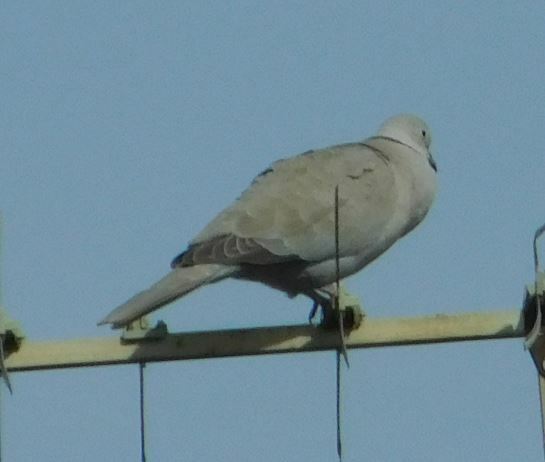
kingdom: Animalia
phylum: Chordata
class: Aves
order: Columbiformes
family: Columbidae
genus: Streptopelia
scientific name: Streptopelia decaocto
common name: Eurasian collared dove
